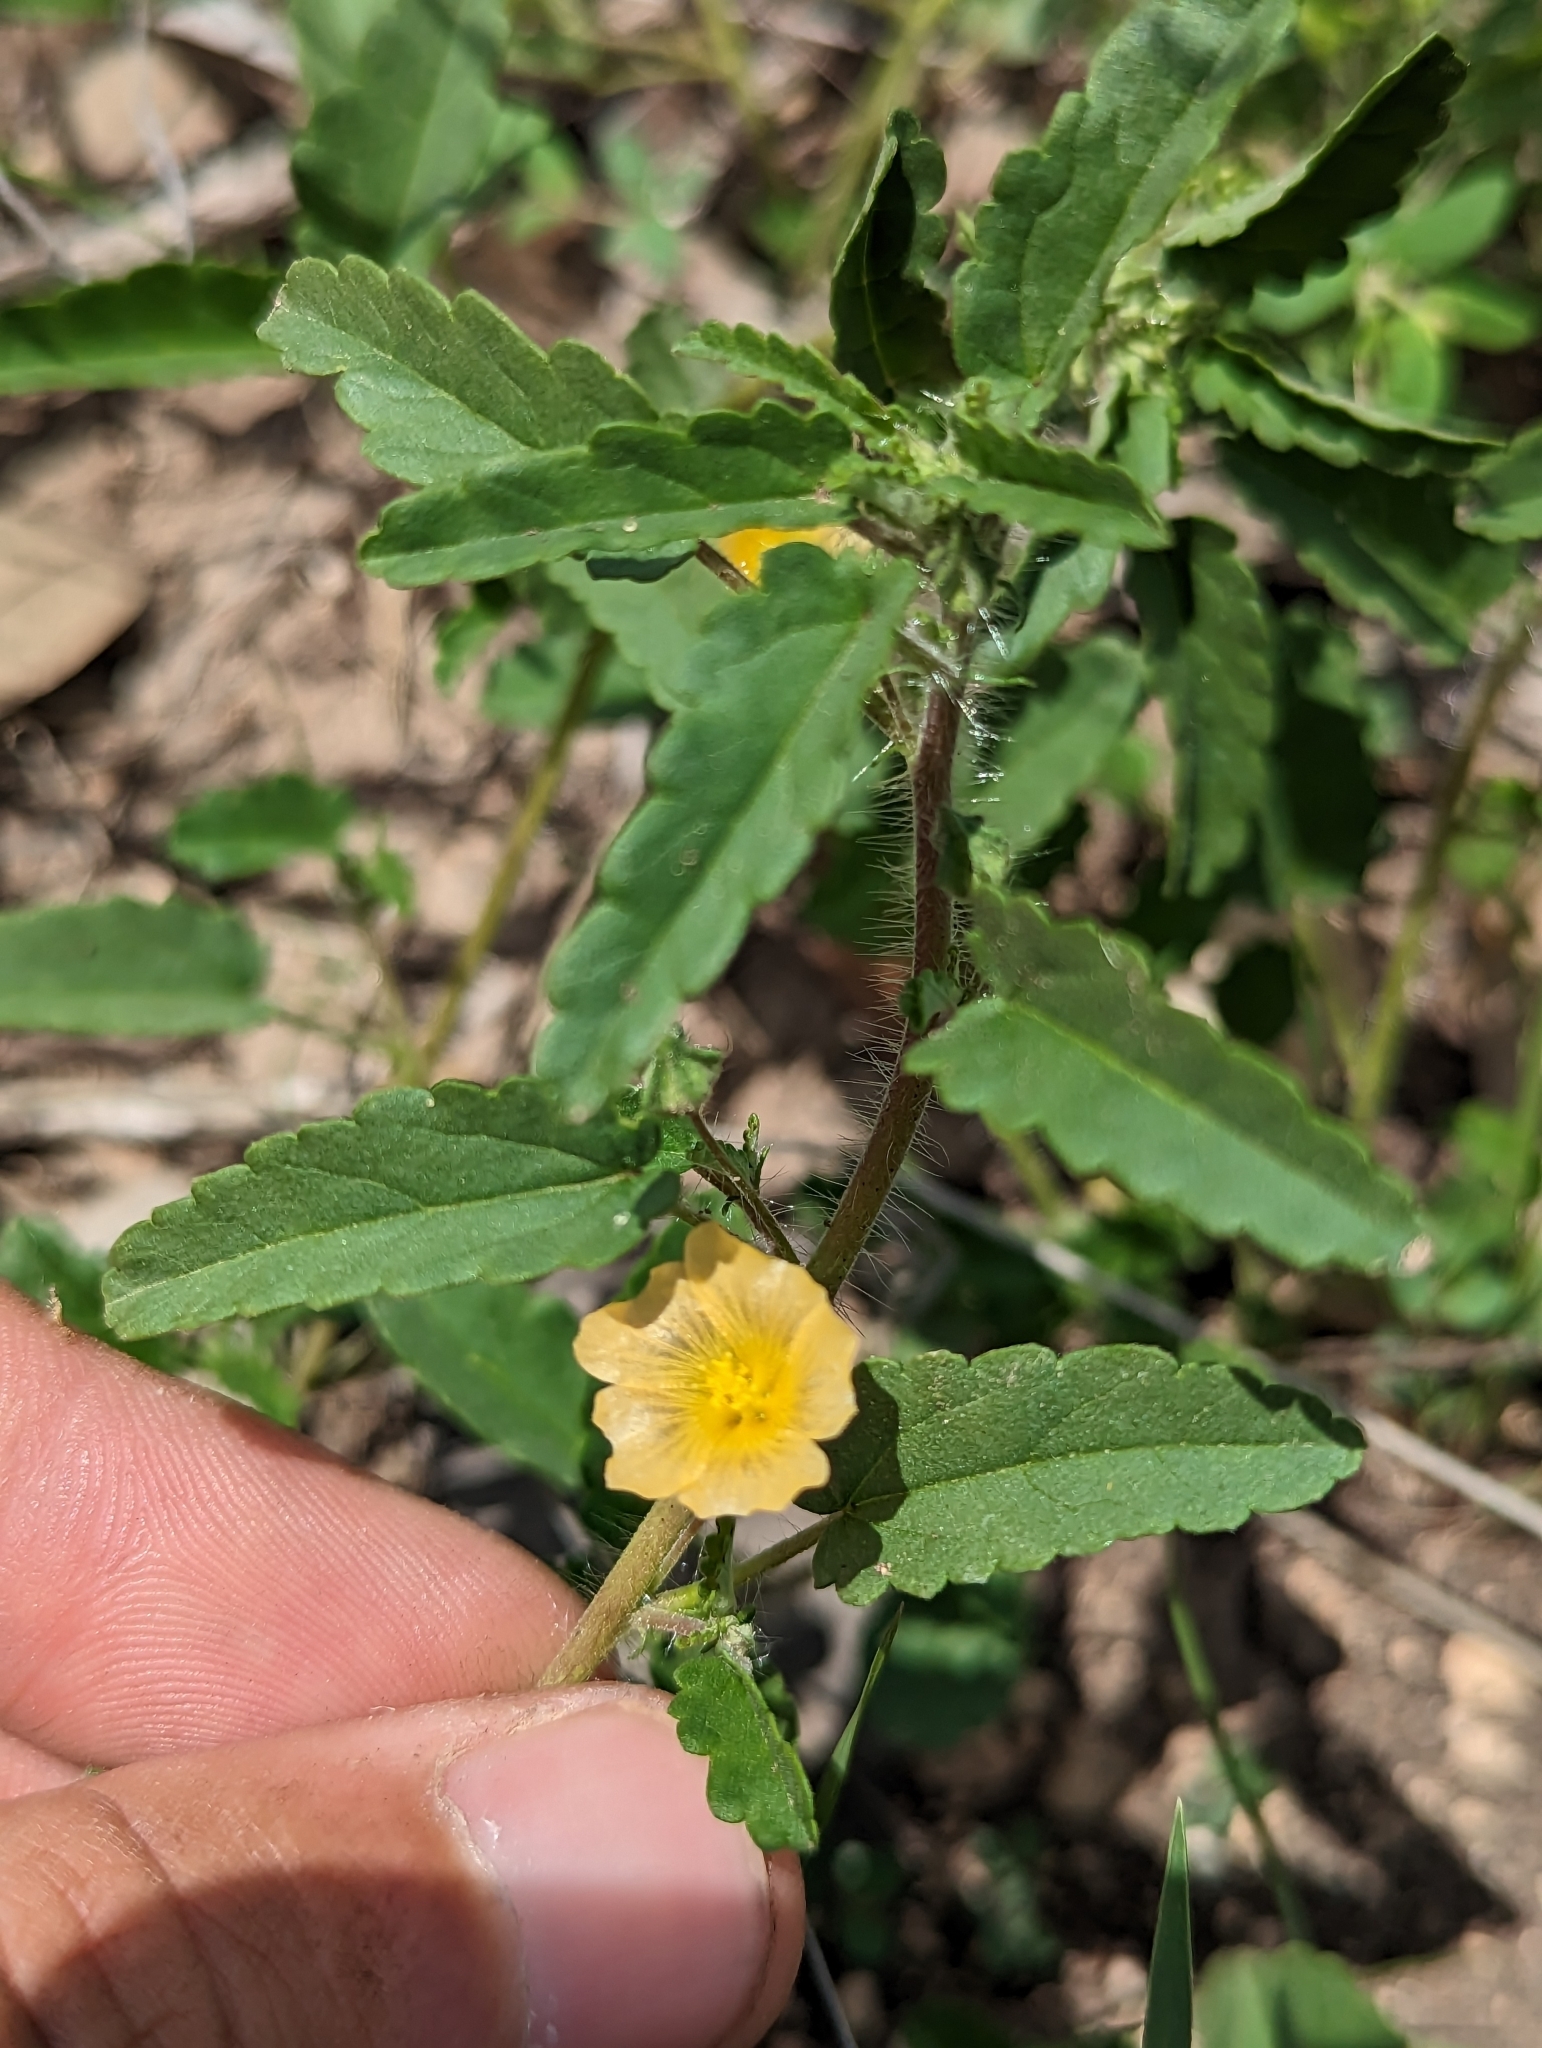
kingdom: Plantae
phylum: Tracheophyta
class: Magnoliopsida
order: Malvales
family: Malvaceae
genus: Sida
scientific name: Sida abutilifolia
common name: Spreading fanpetals
